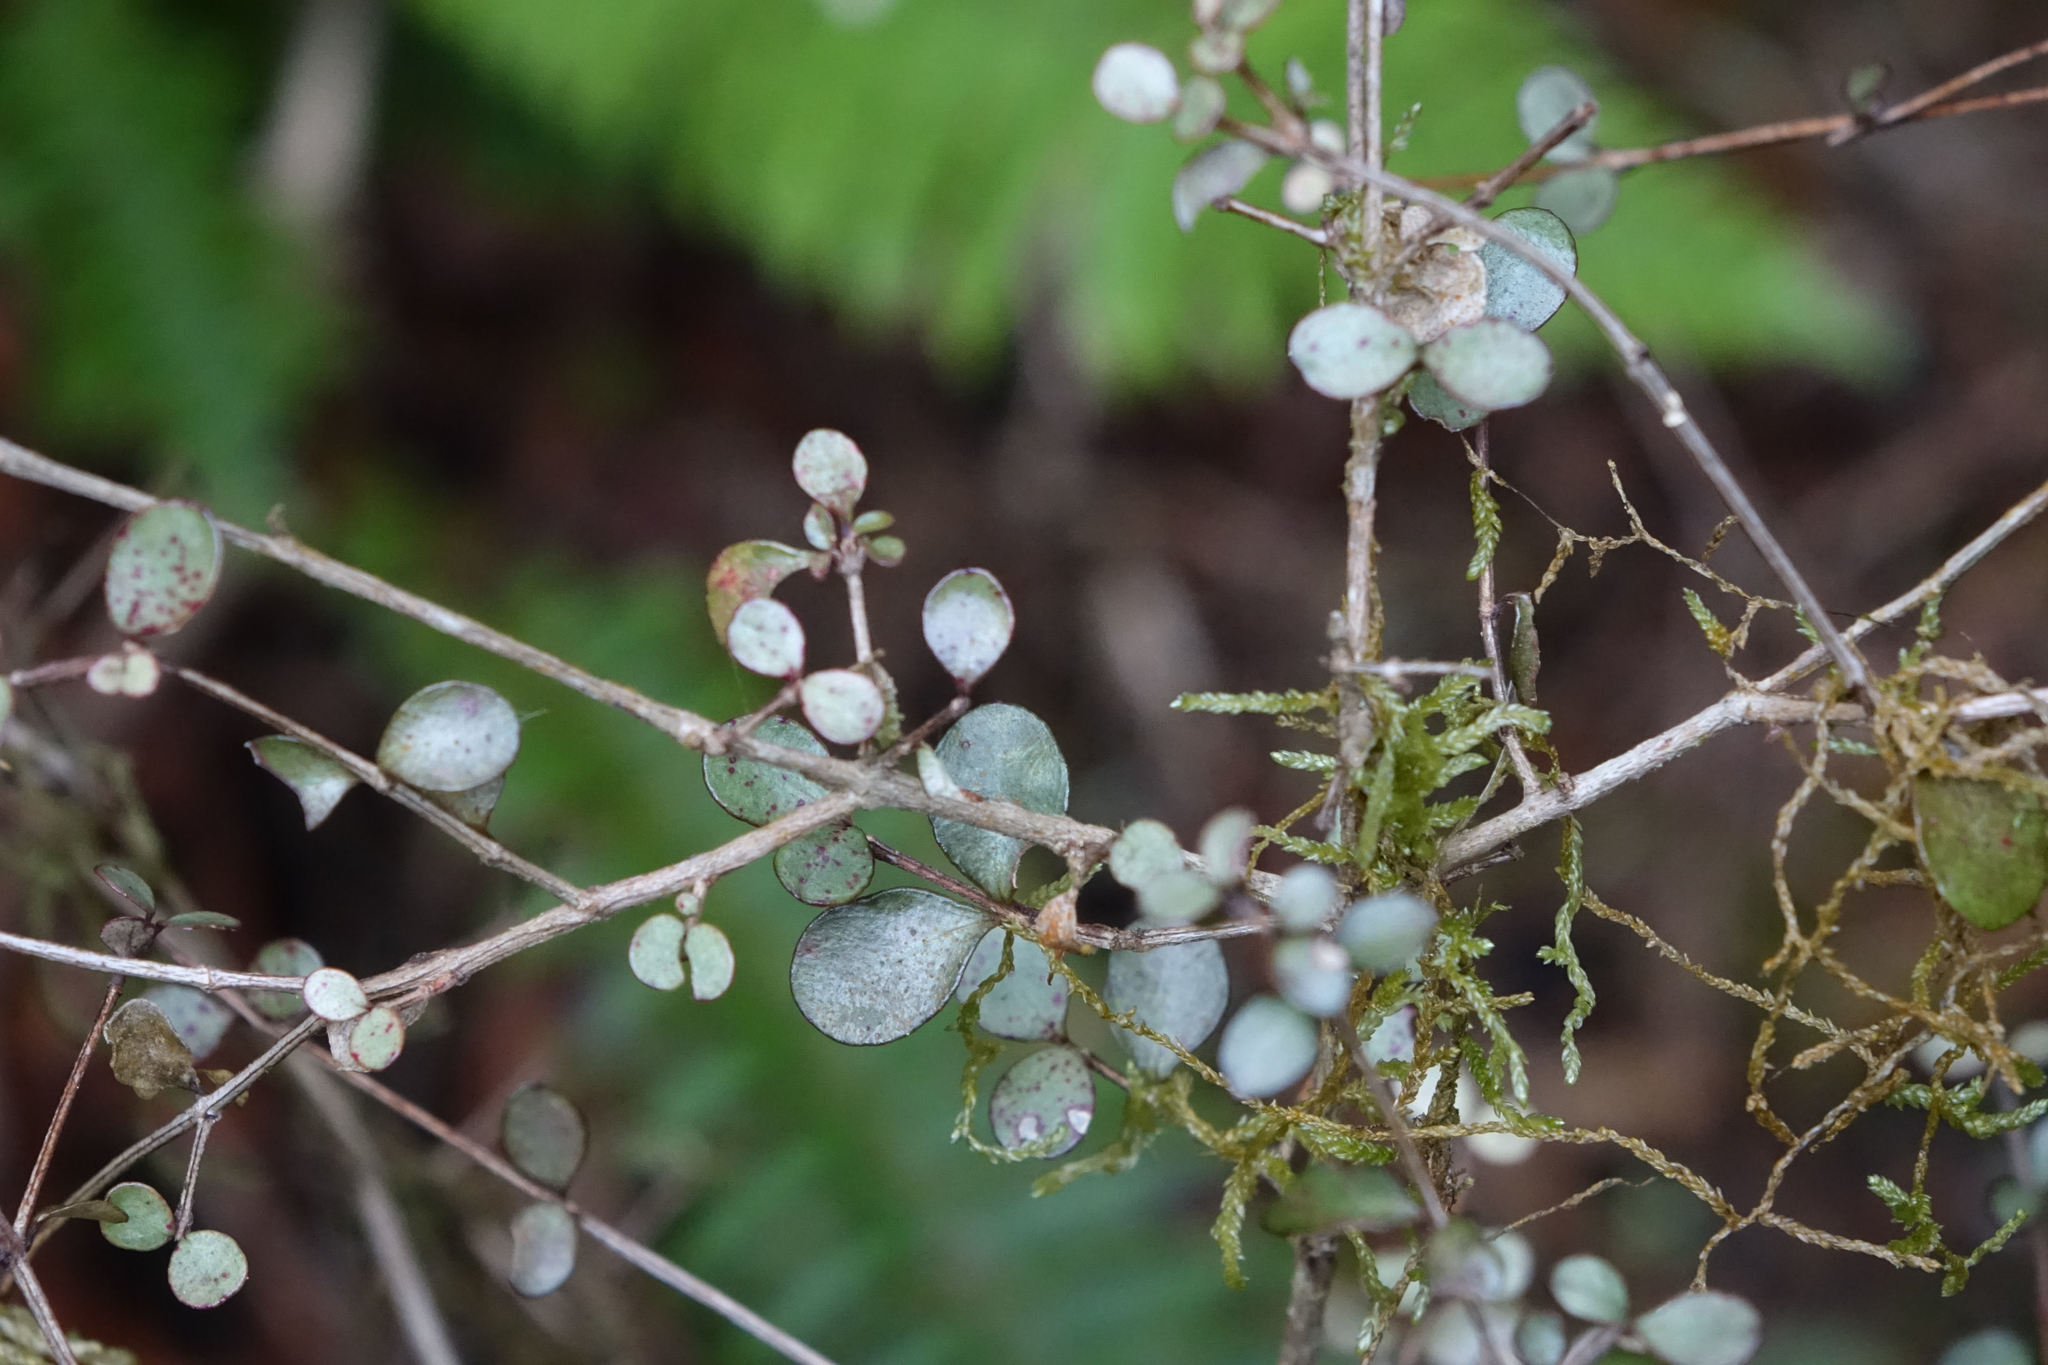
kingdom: Plantae
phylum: Tracheophyta
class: Magnoliopsida
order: Myrtales
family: Myrtaceae
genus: Neomyrtus
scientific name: Neomyrtus pedunculata
